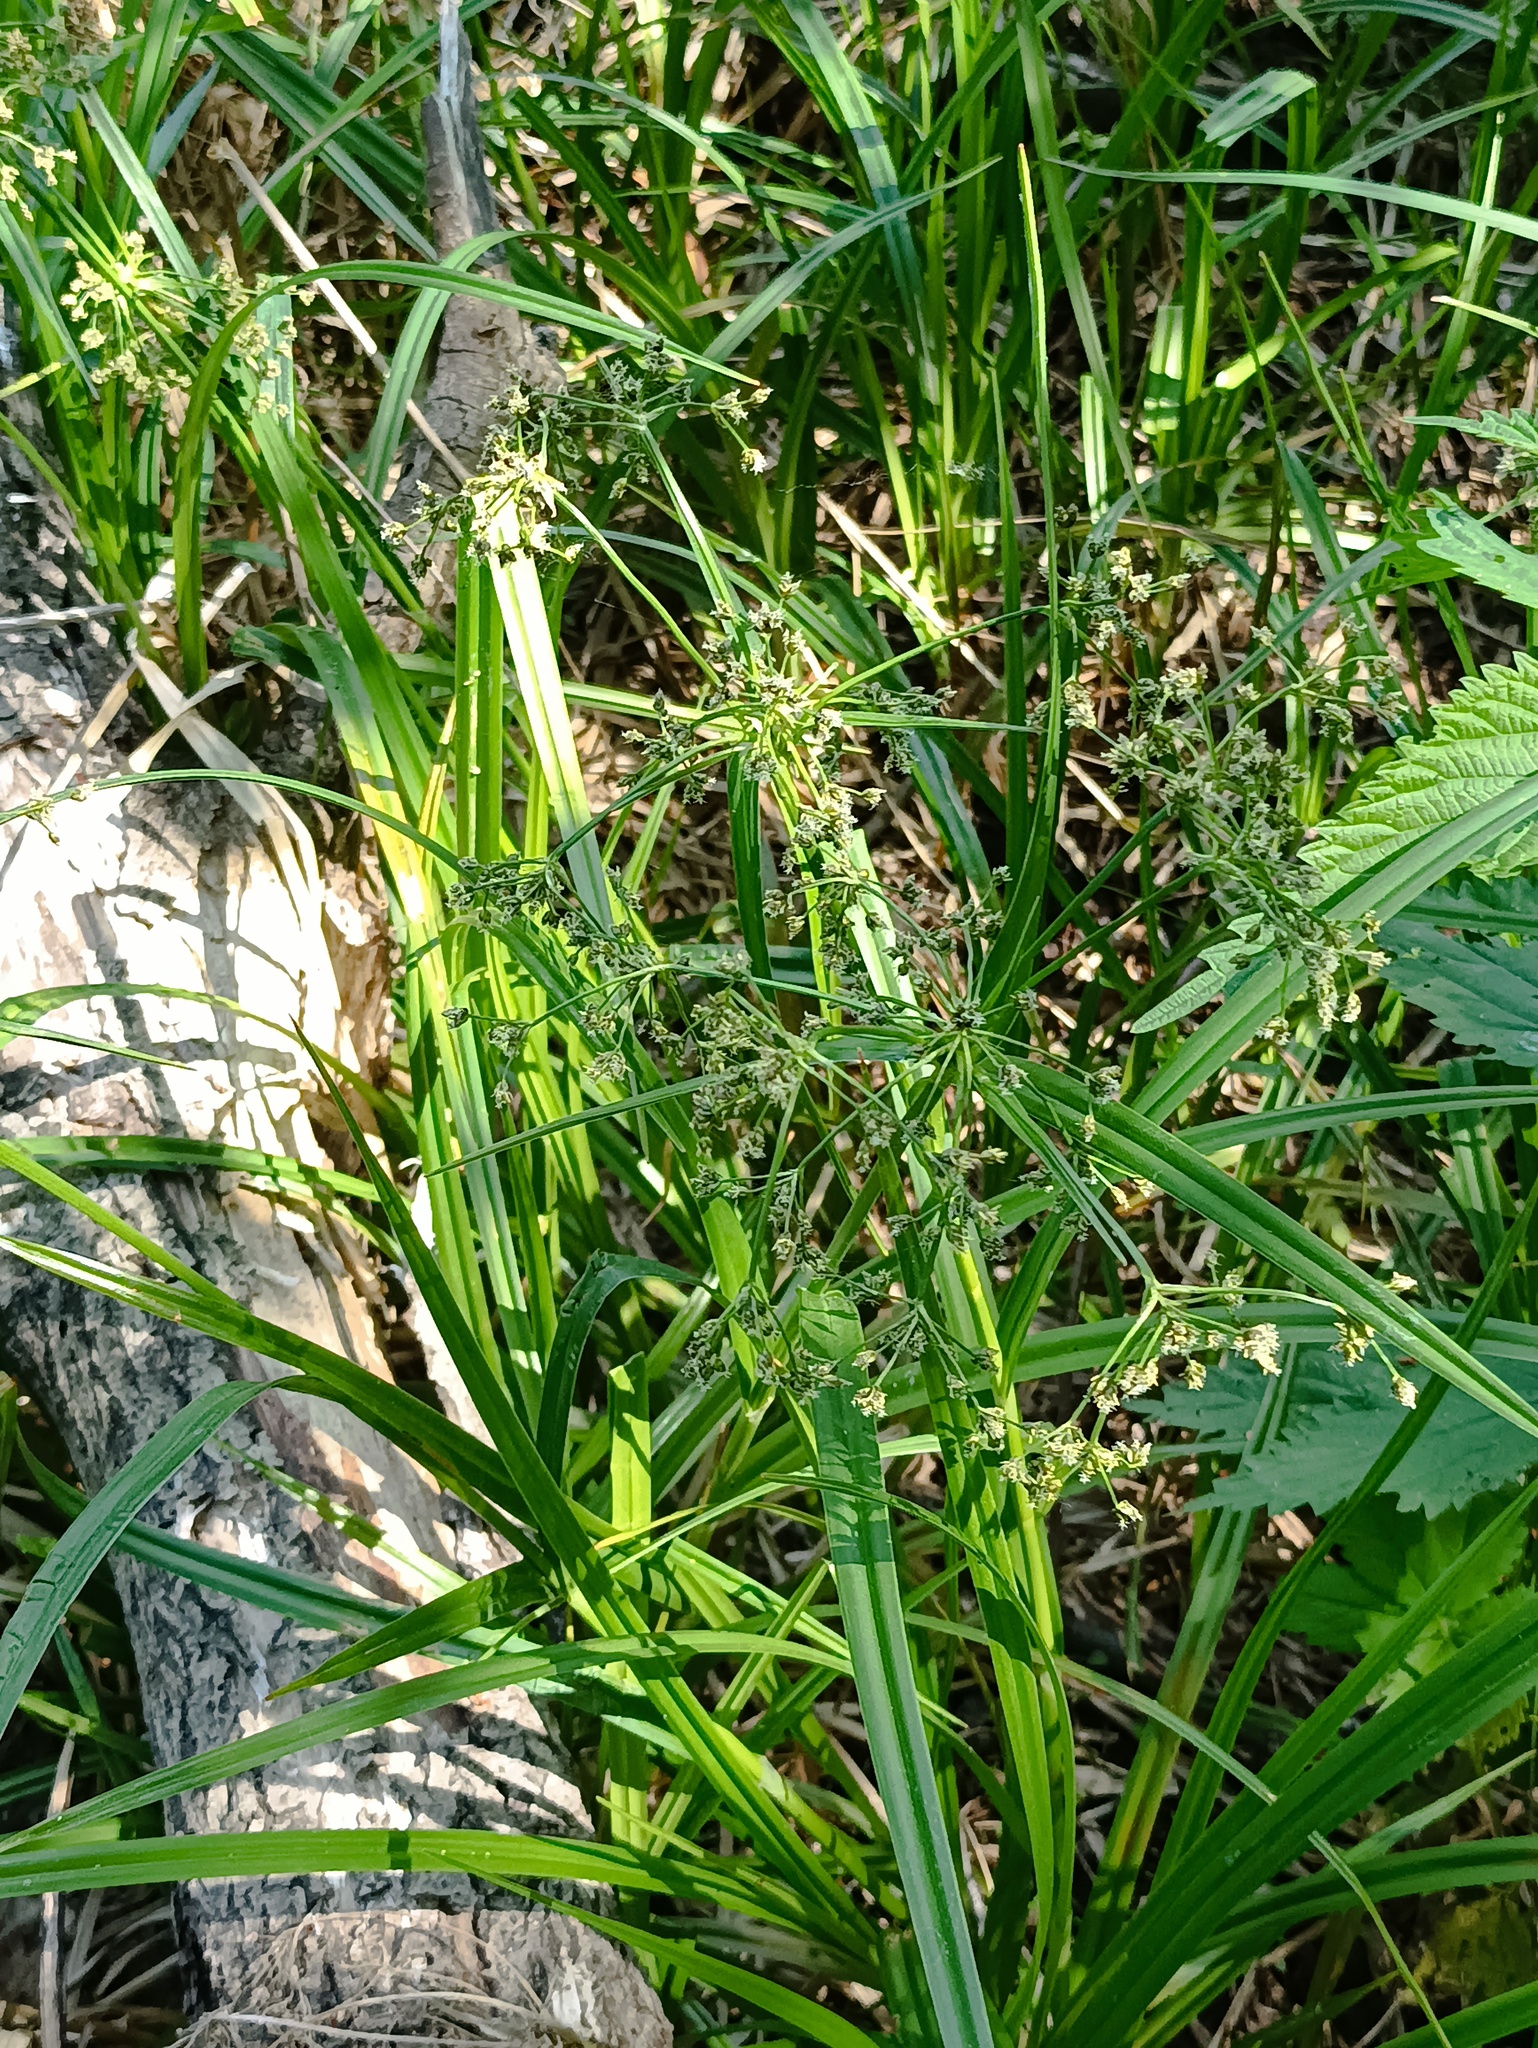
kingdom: Plantae
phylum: Tracheophyta
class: Liliopsida
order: Poales
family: Cyperaceae
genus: Scirpus
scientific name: Scirpus sylvaticus
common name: Wood club-rush
